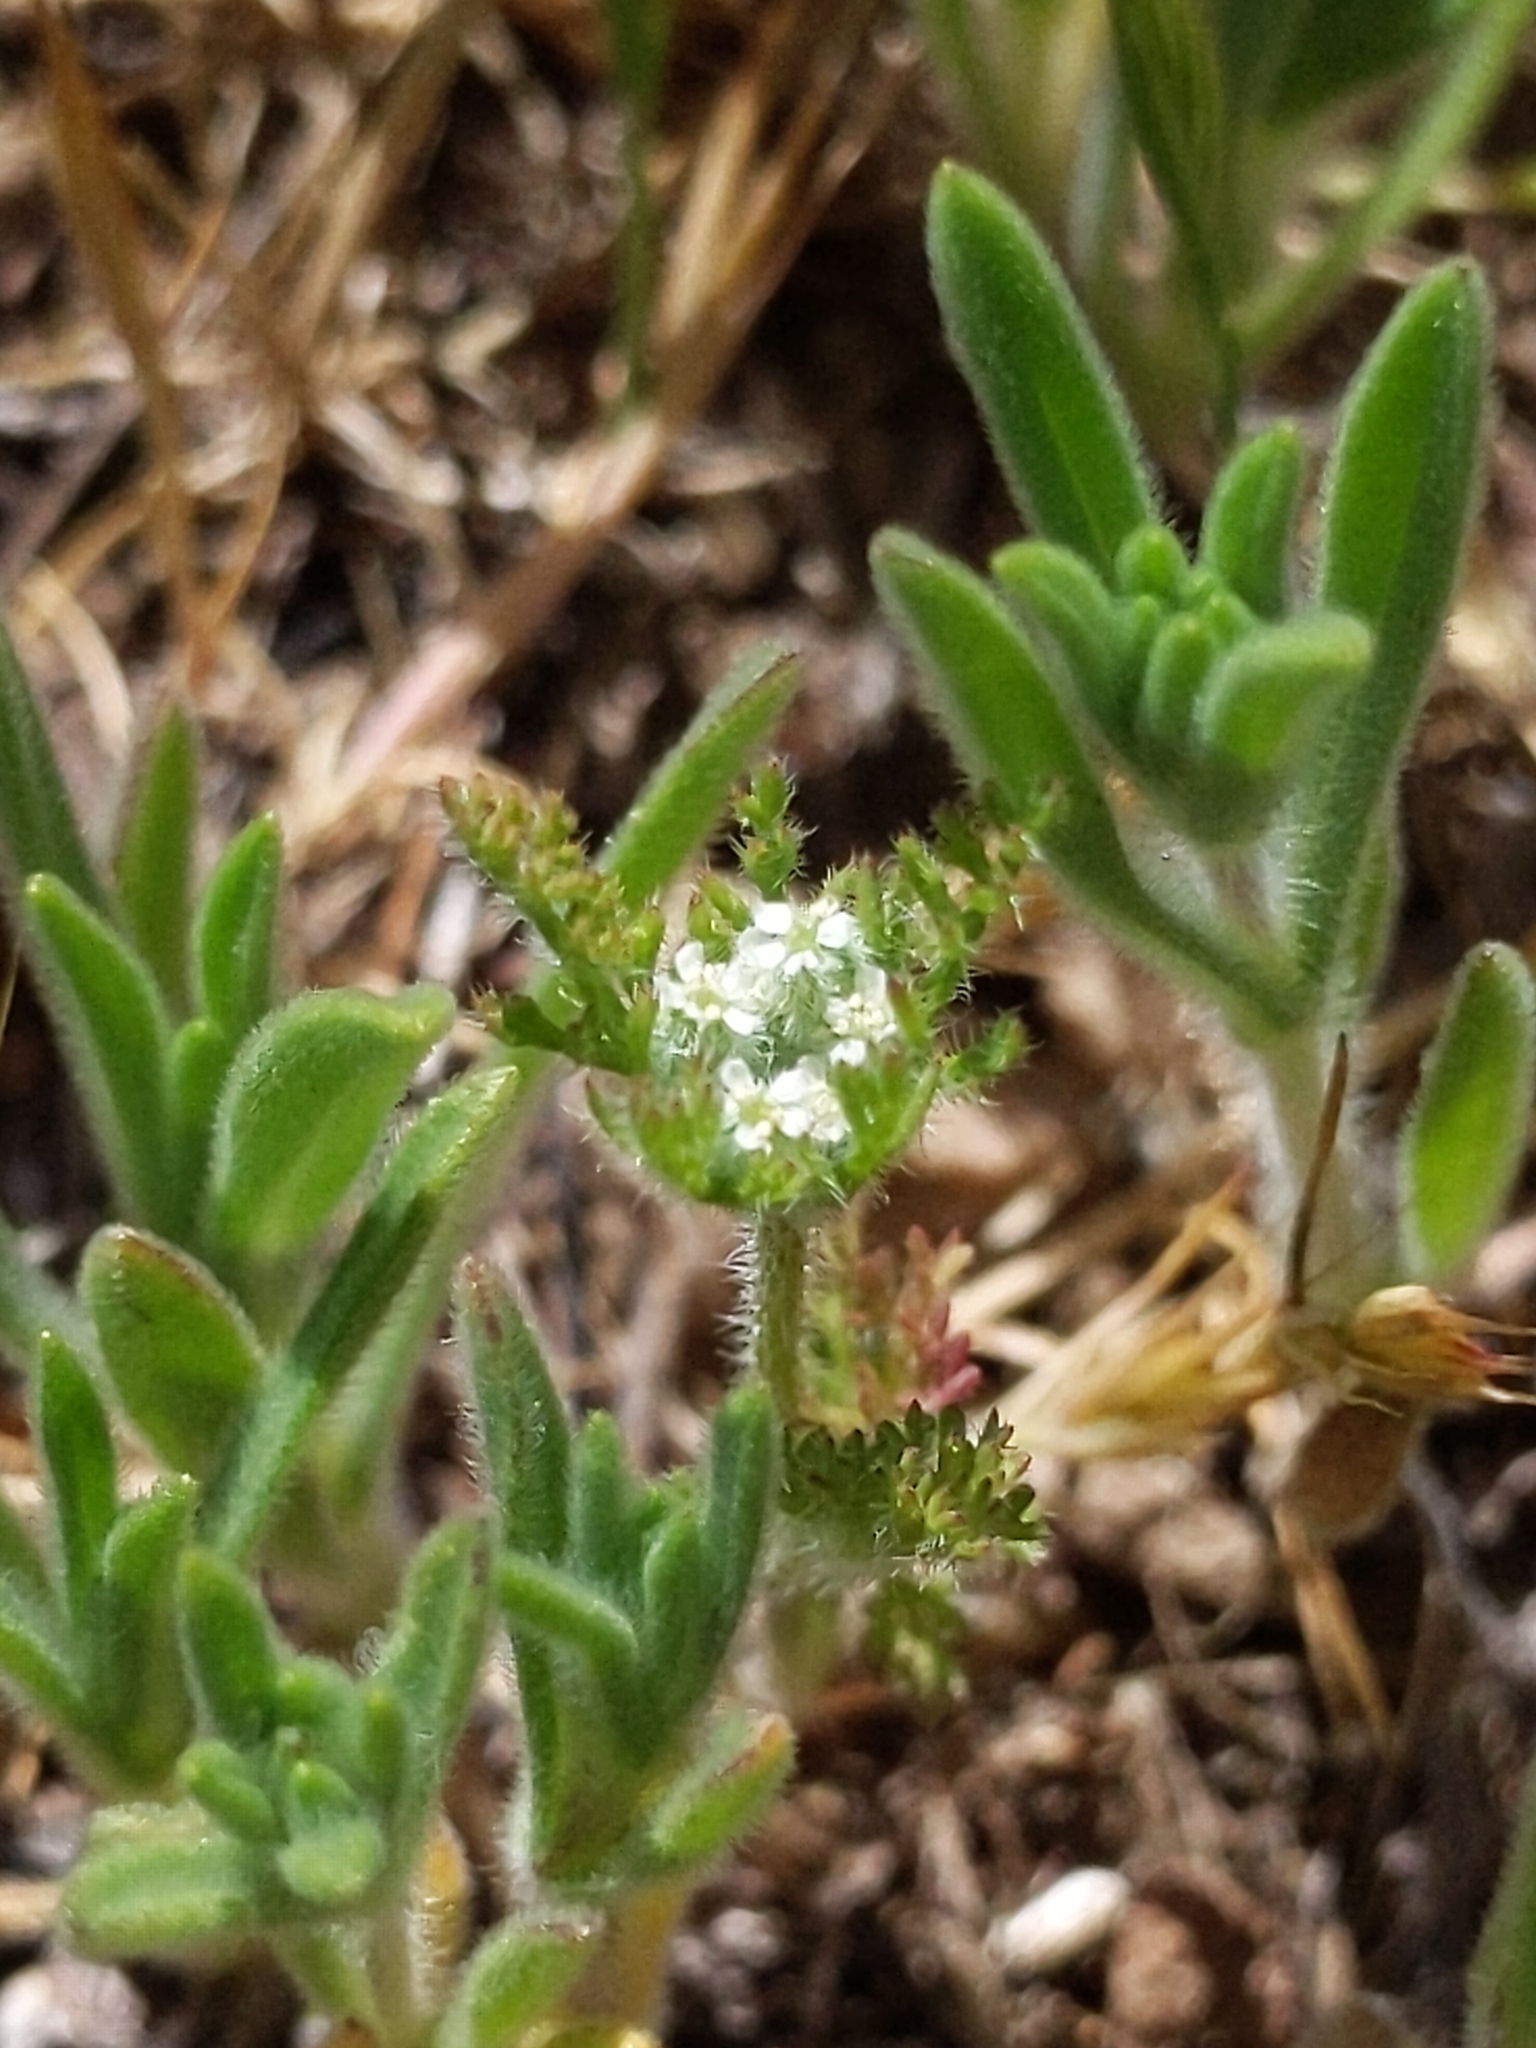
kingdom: Plantae
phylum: Tracheophyta
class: Magnoliopsida
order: Apiales
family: Apiaceae
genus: Daucus
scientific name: Daucus pusillus
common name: Southwest wild carrot
